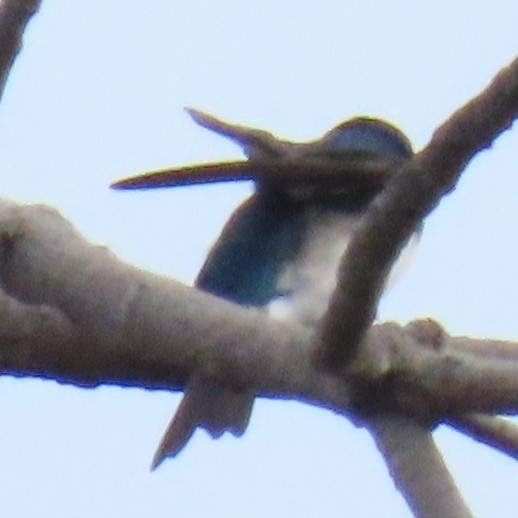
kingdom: Animalia
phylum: Chordata
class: Aves
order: Passeriformes
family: Hirundinidae
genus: Tachycineta
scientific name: Tachycineta bicolor
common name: Tree swallow
